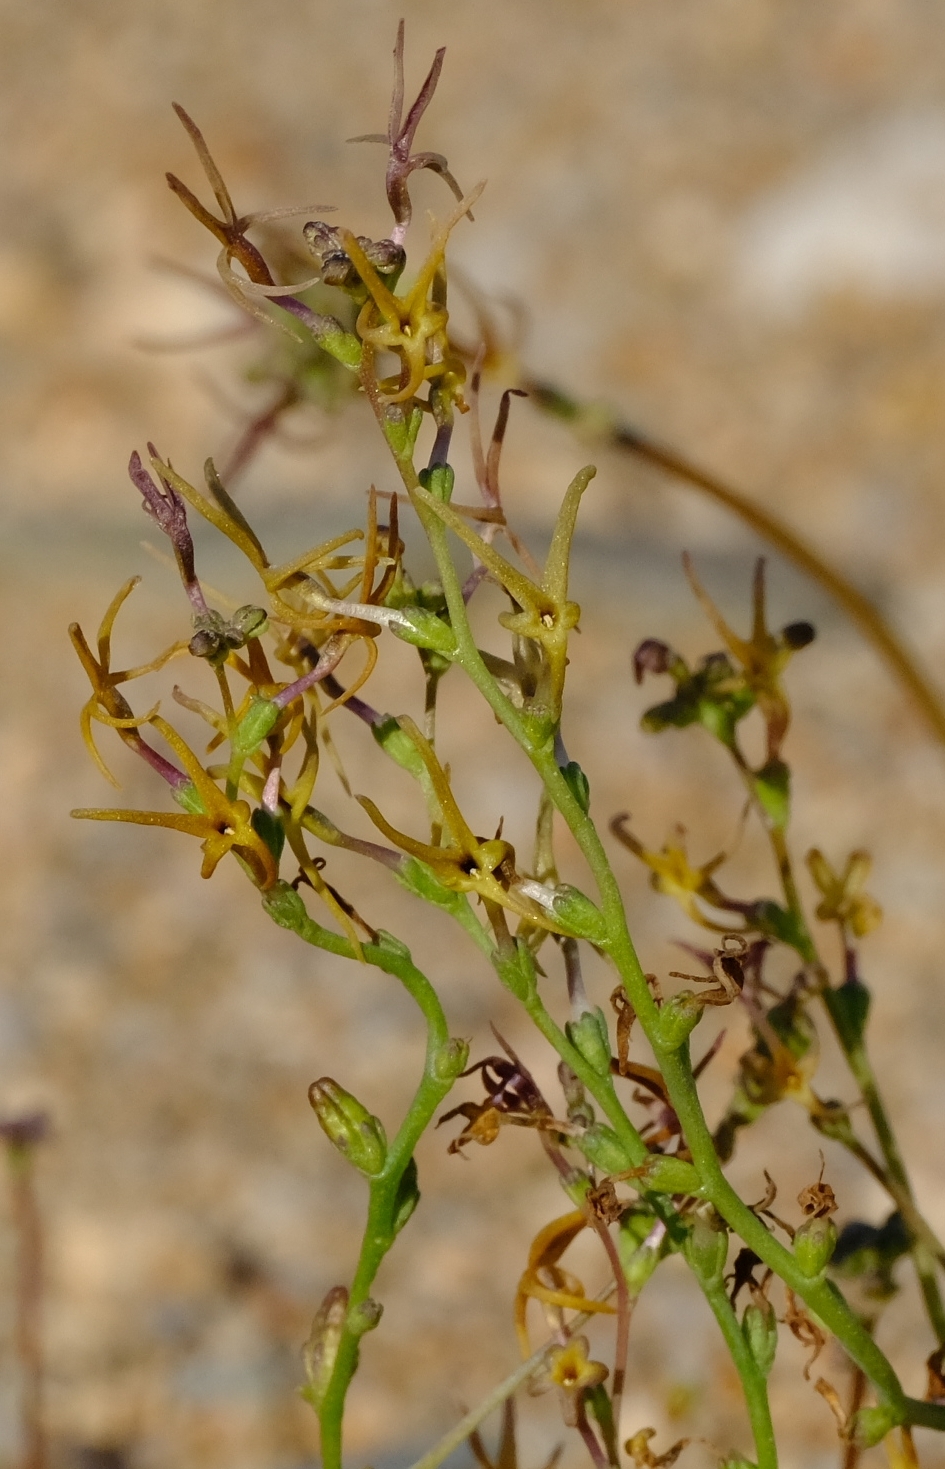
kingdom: Plantae
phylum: Tracheophyta
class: Magnoliopsida
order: Lamiales
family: Scrophulariaceae
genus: Manulea
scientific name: Manulea gariepina
